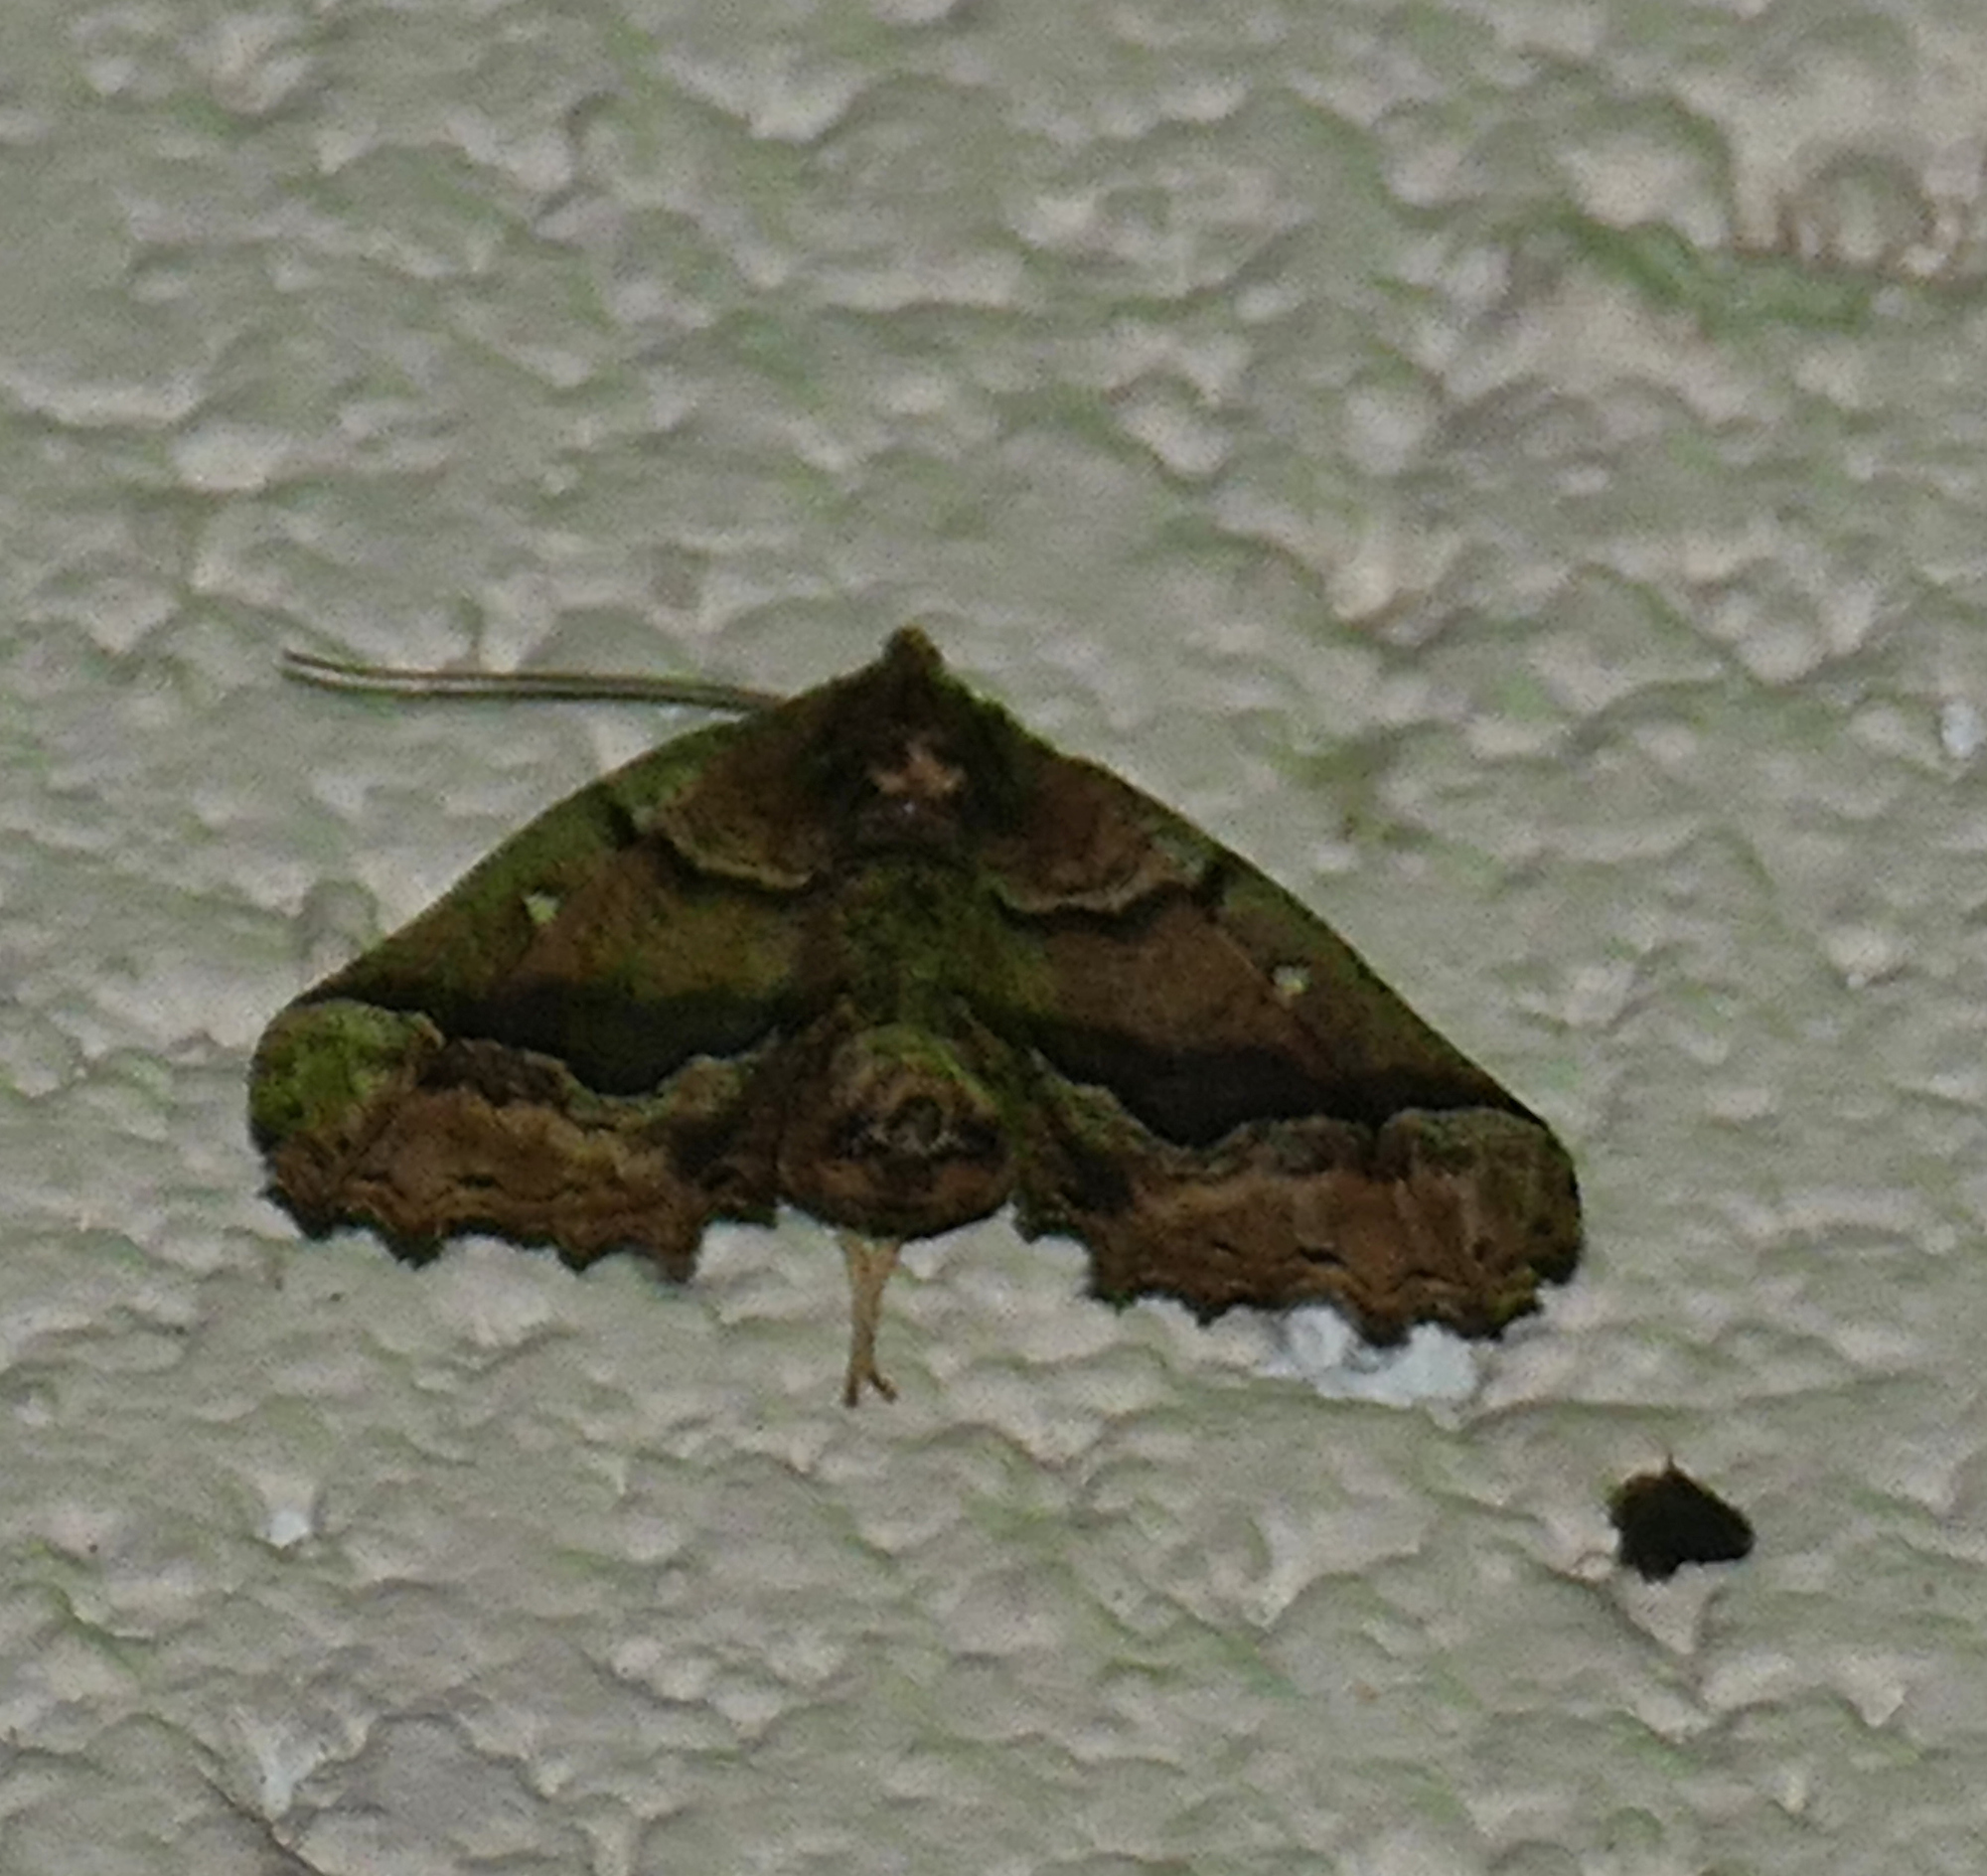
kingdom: Animalia
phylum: Arthropoda
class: Insecta
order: Lepidoptera
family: Geometridae
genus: Pero
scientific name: Pero meskaria
